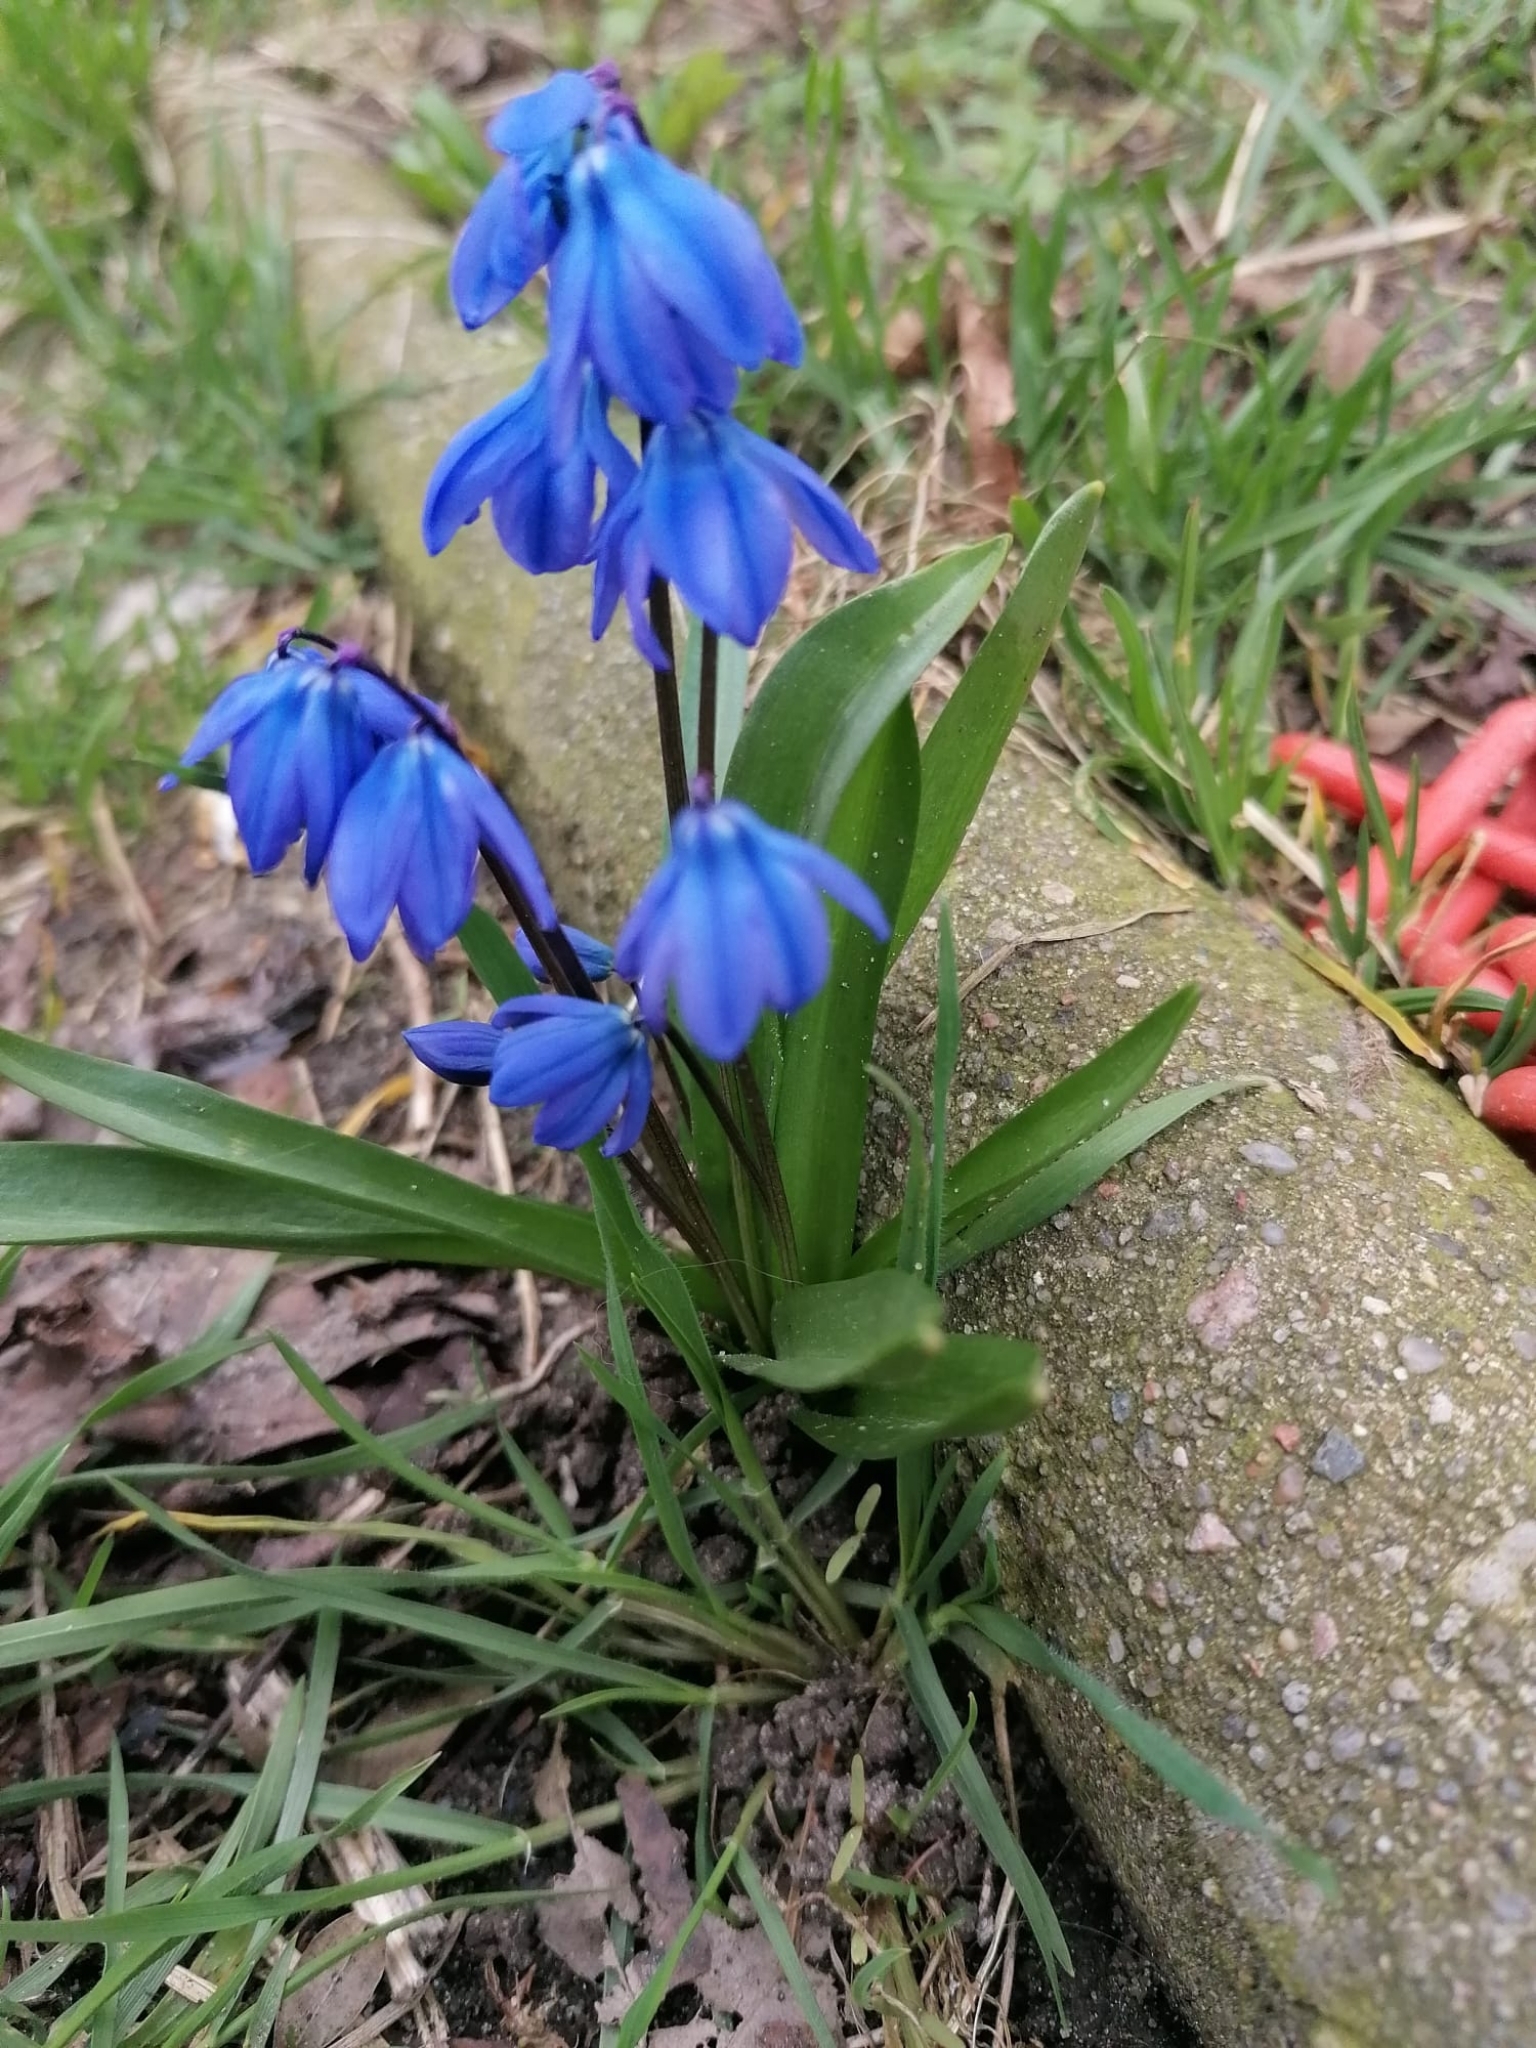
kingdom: Plantae
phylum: Tracheophyta
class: Liliopsida
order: Asparagales
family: Asparagaceae
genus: Scilla
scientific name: Scilla siberica
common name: Siberian squill
